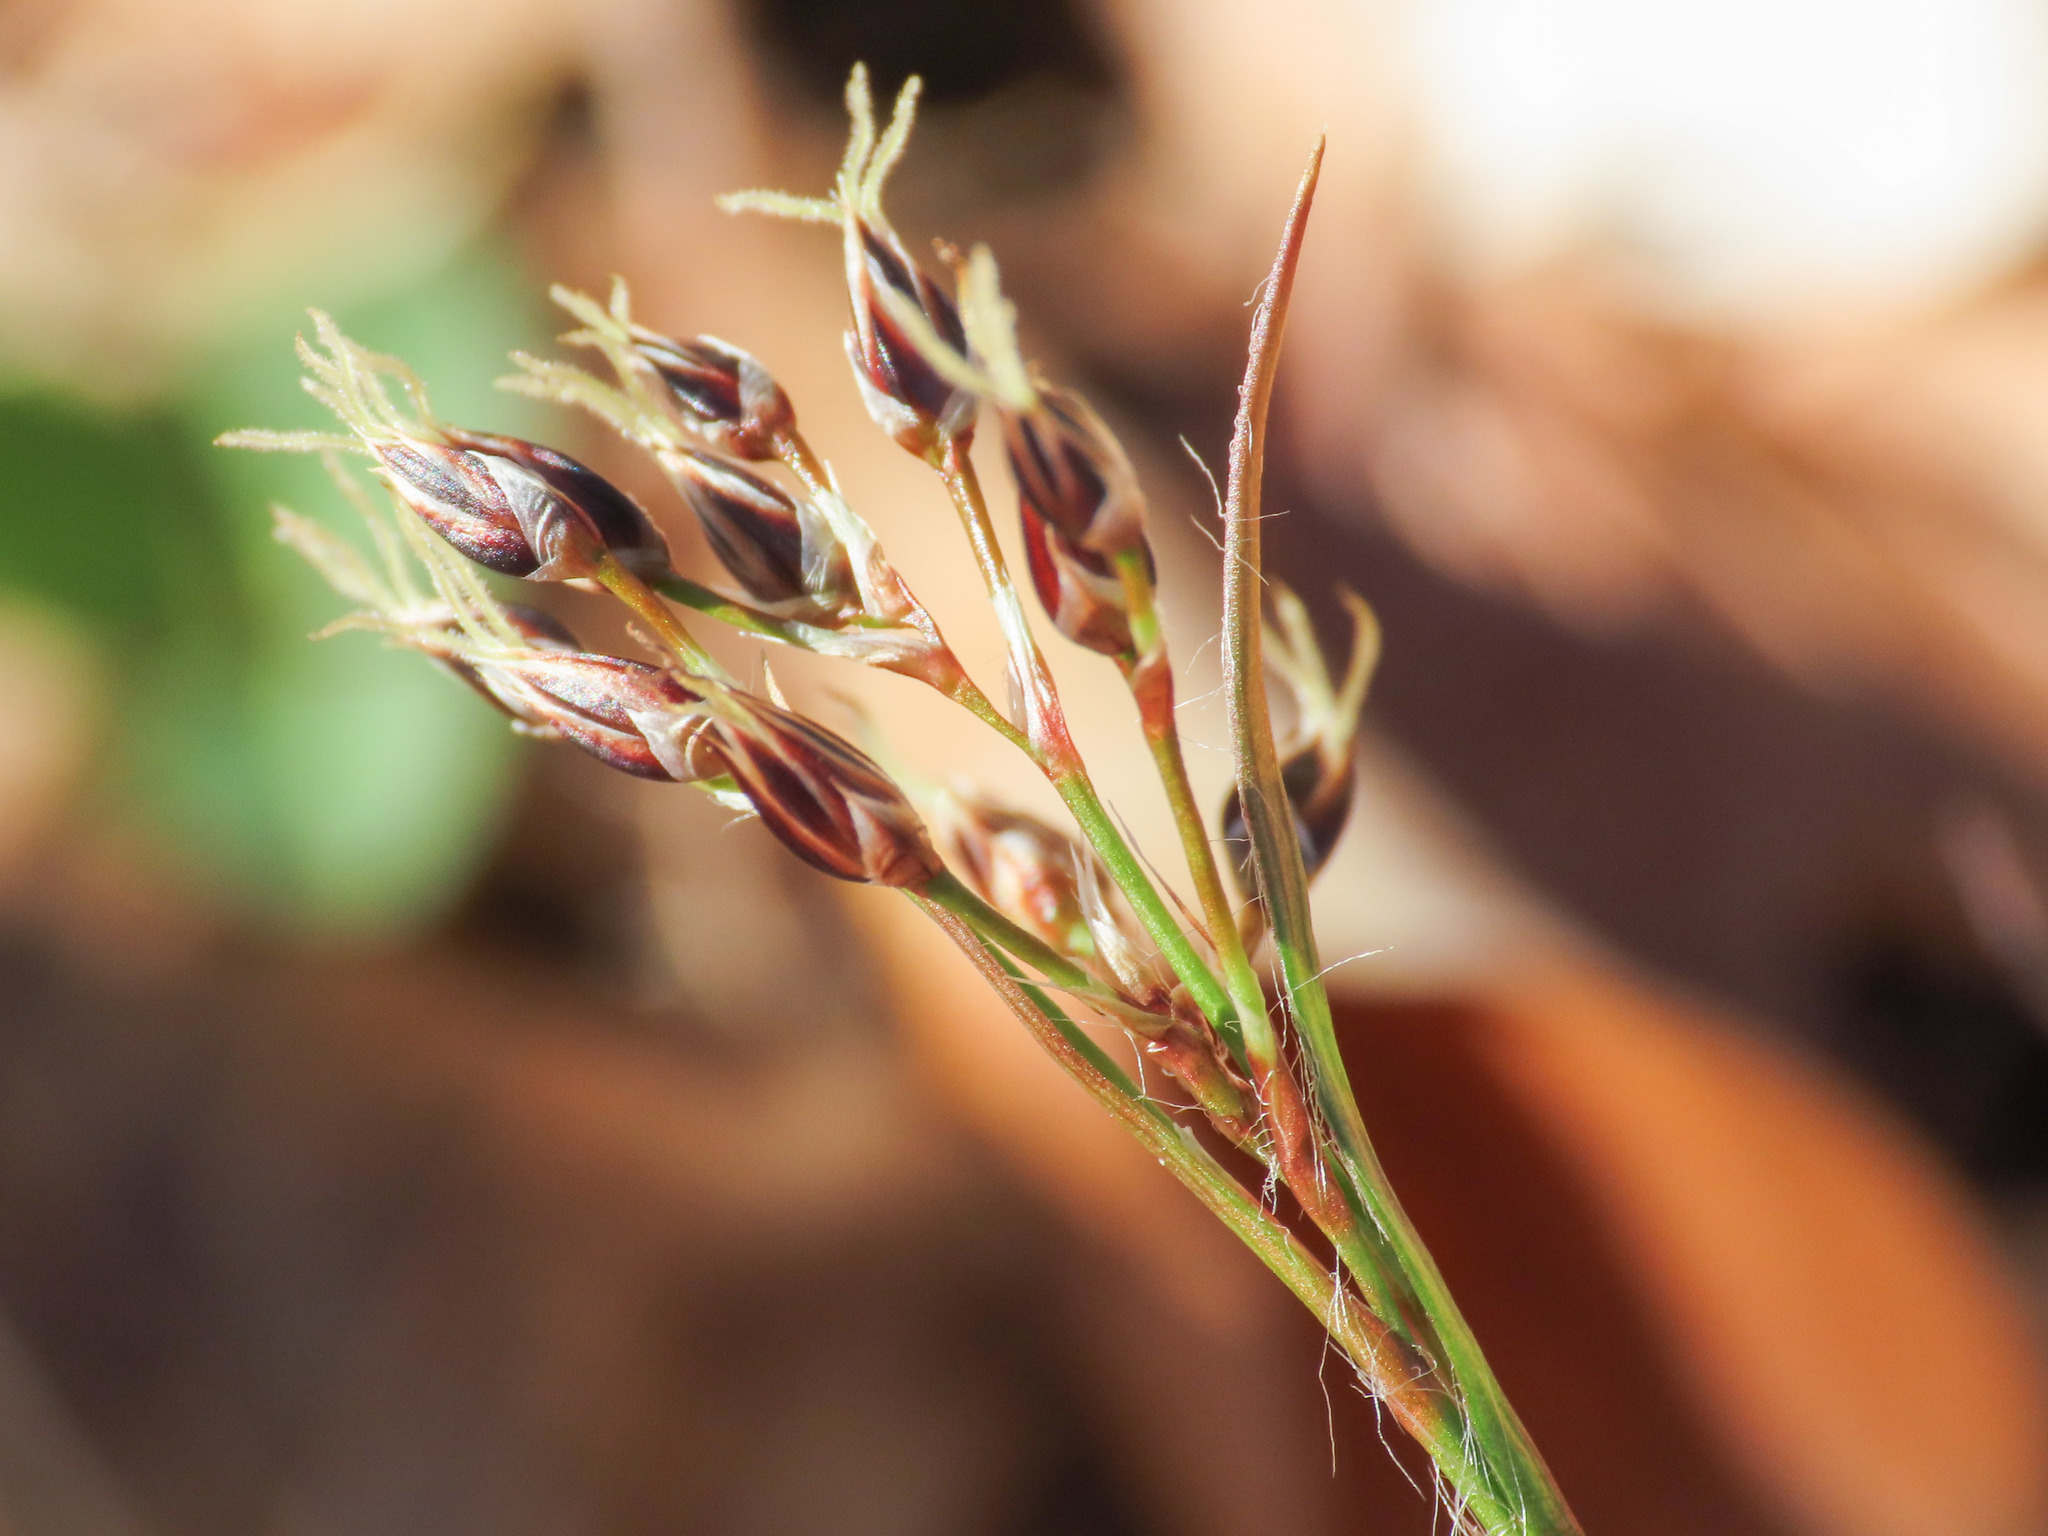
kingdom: Plantae
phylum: Tracheophyta
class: Liliopsida
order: Poales
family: Juncaceae
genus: Luzula
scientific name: Luzula pilosa
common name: Hairy wood-rush
